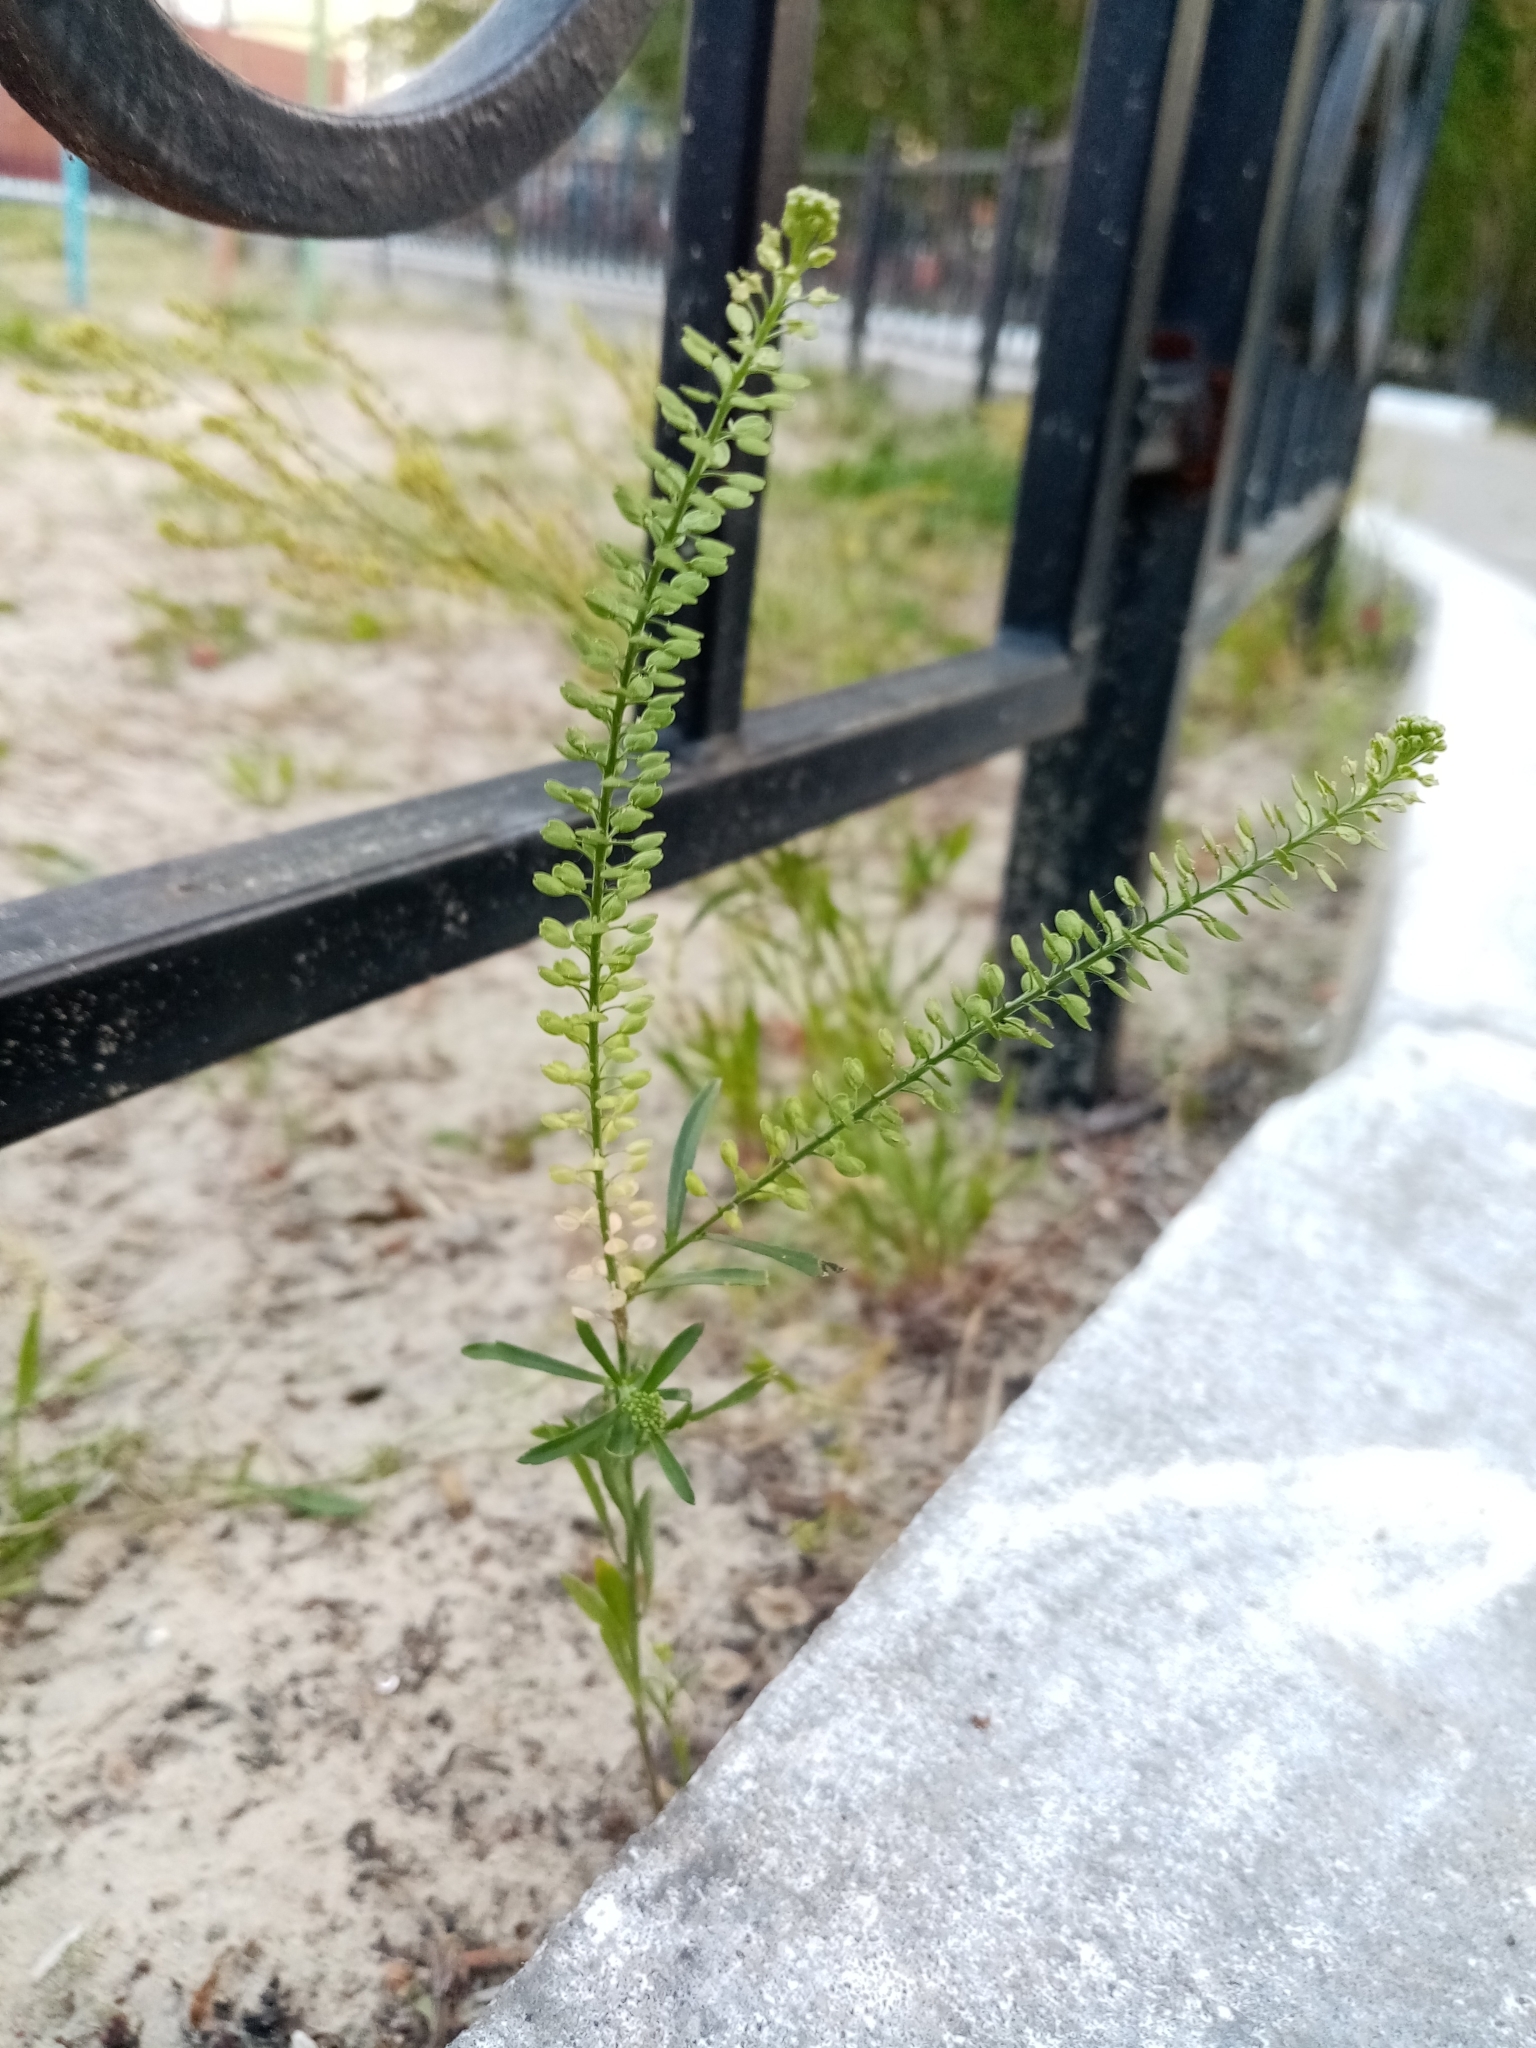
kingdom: Plantae
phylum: Tracheophyta
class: Magnoliopsida
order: Brassicales
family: Brassicaceae
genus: Lepidium
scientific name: Lepidium densiflorum
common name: Miner's pepperwort
